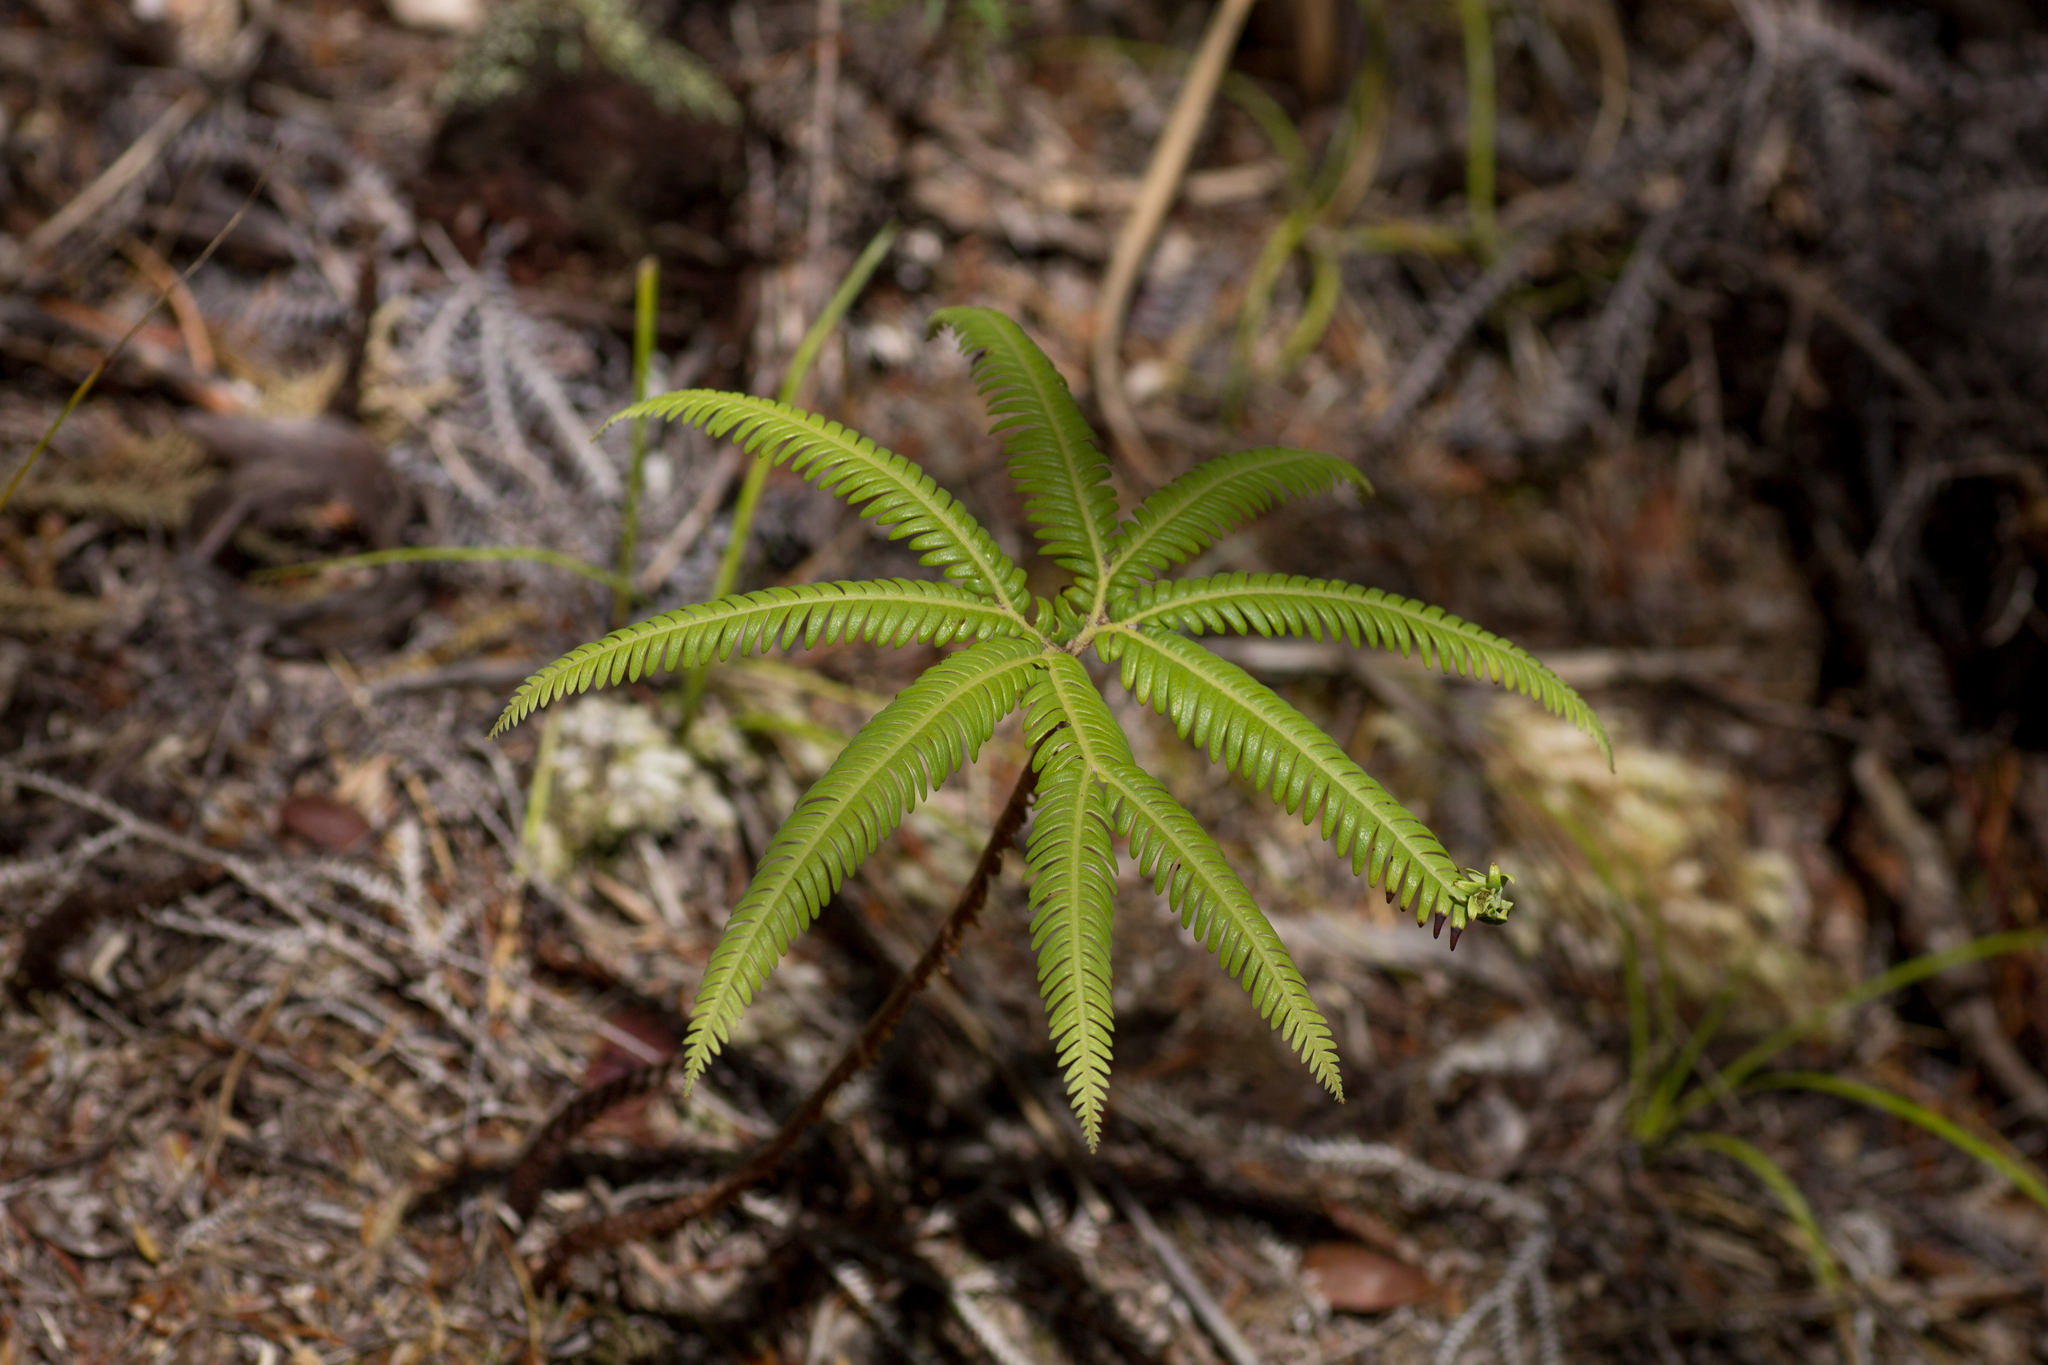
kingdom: Plantae
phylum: Tracheophyta
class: Polypodiopsida
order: Gleicheniales
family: Gleicheniaceae
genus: Sticherus
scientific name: Sticherus cunninghamii
